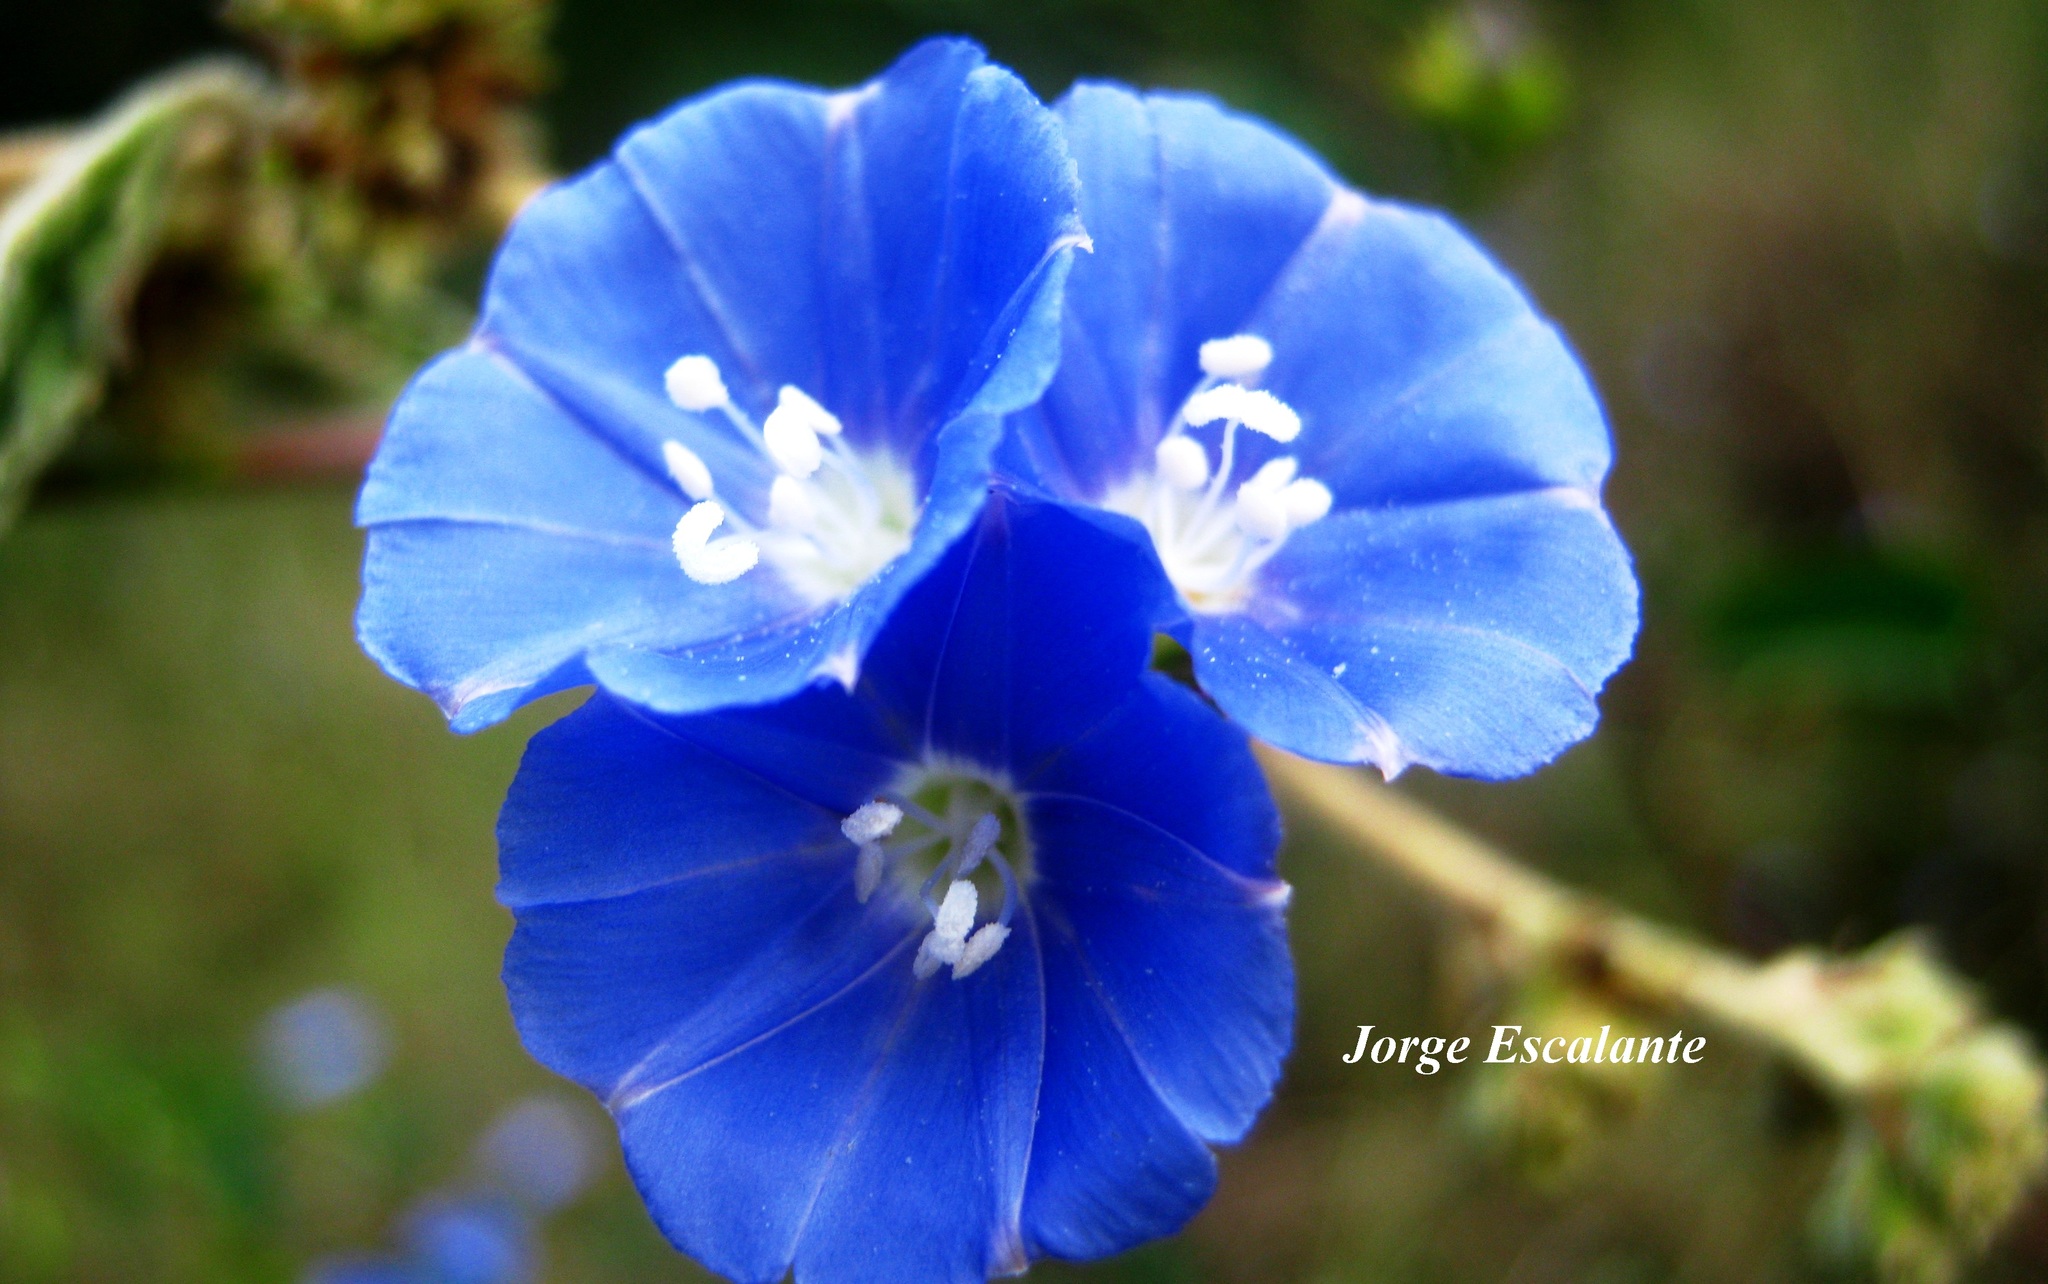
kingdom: Plantae
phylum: Tracheophyta
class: Magnoliopsida
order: Solanales
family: Convolvulaceae
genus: Jacquemontia
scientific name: Jacquemontia pentanthos
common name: Skyblue clustervine
